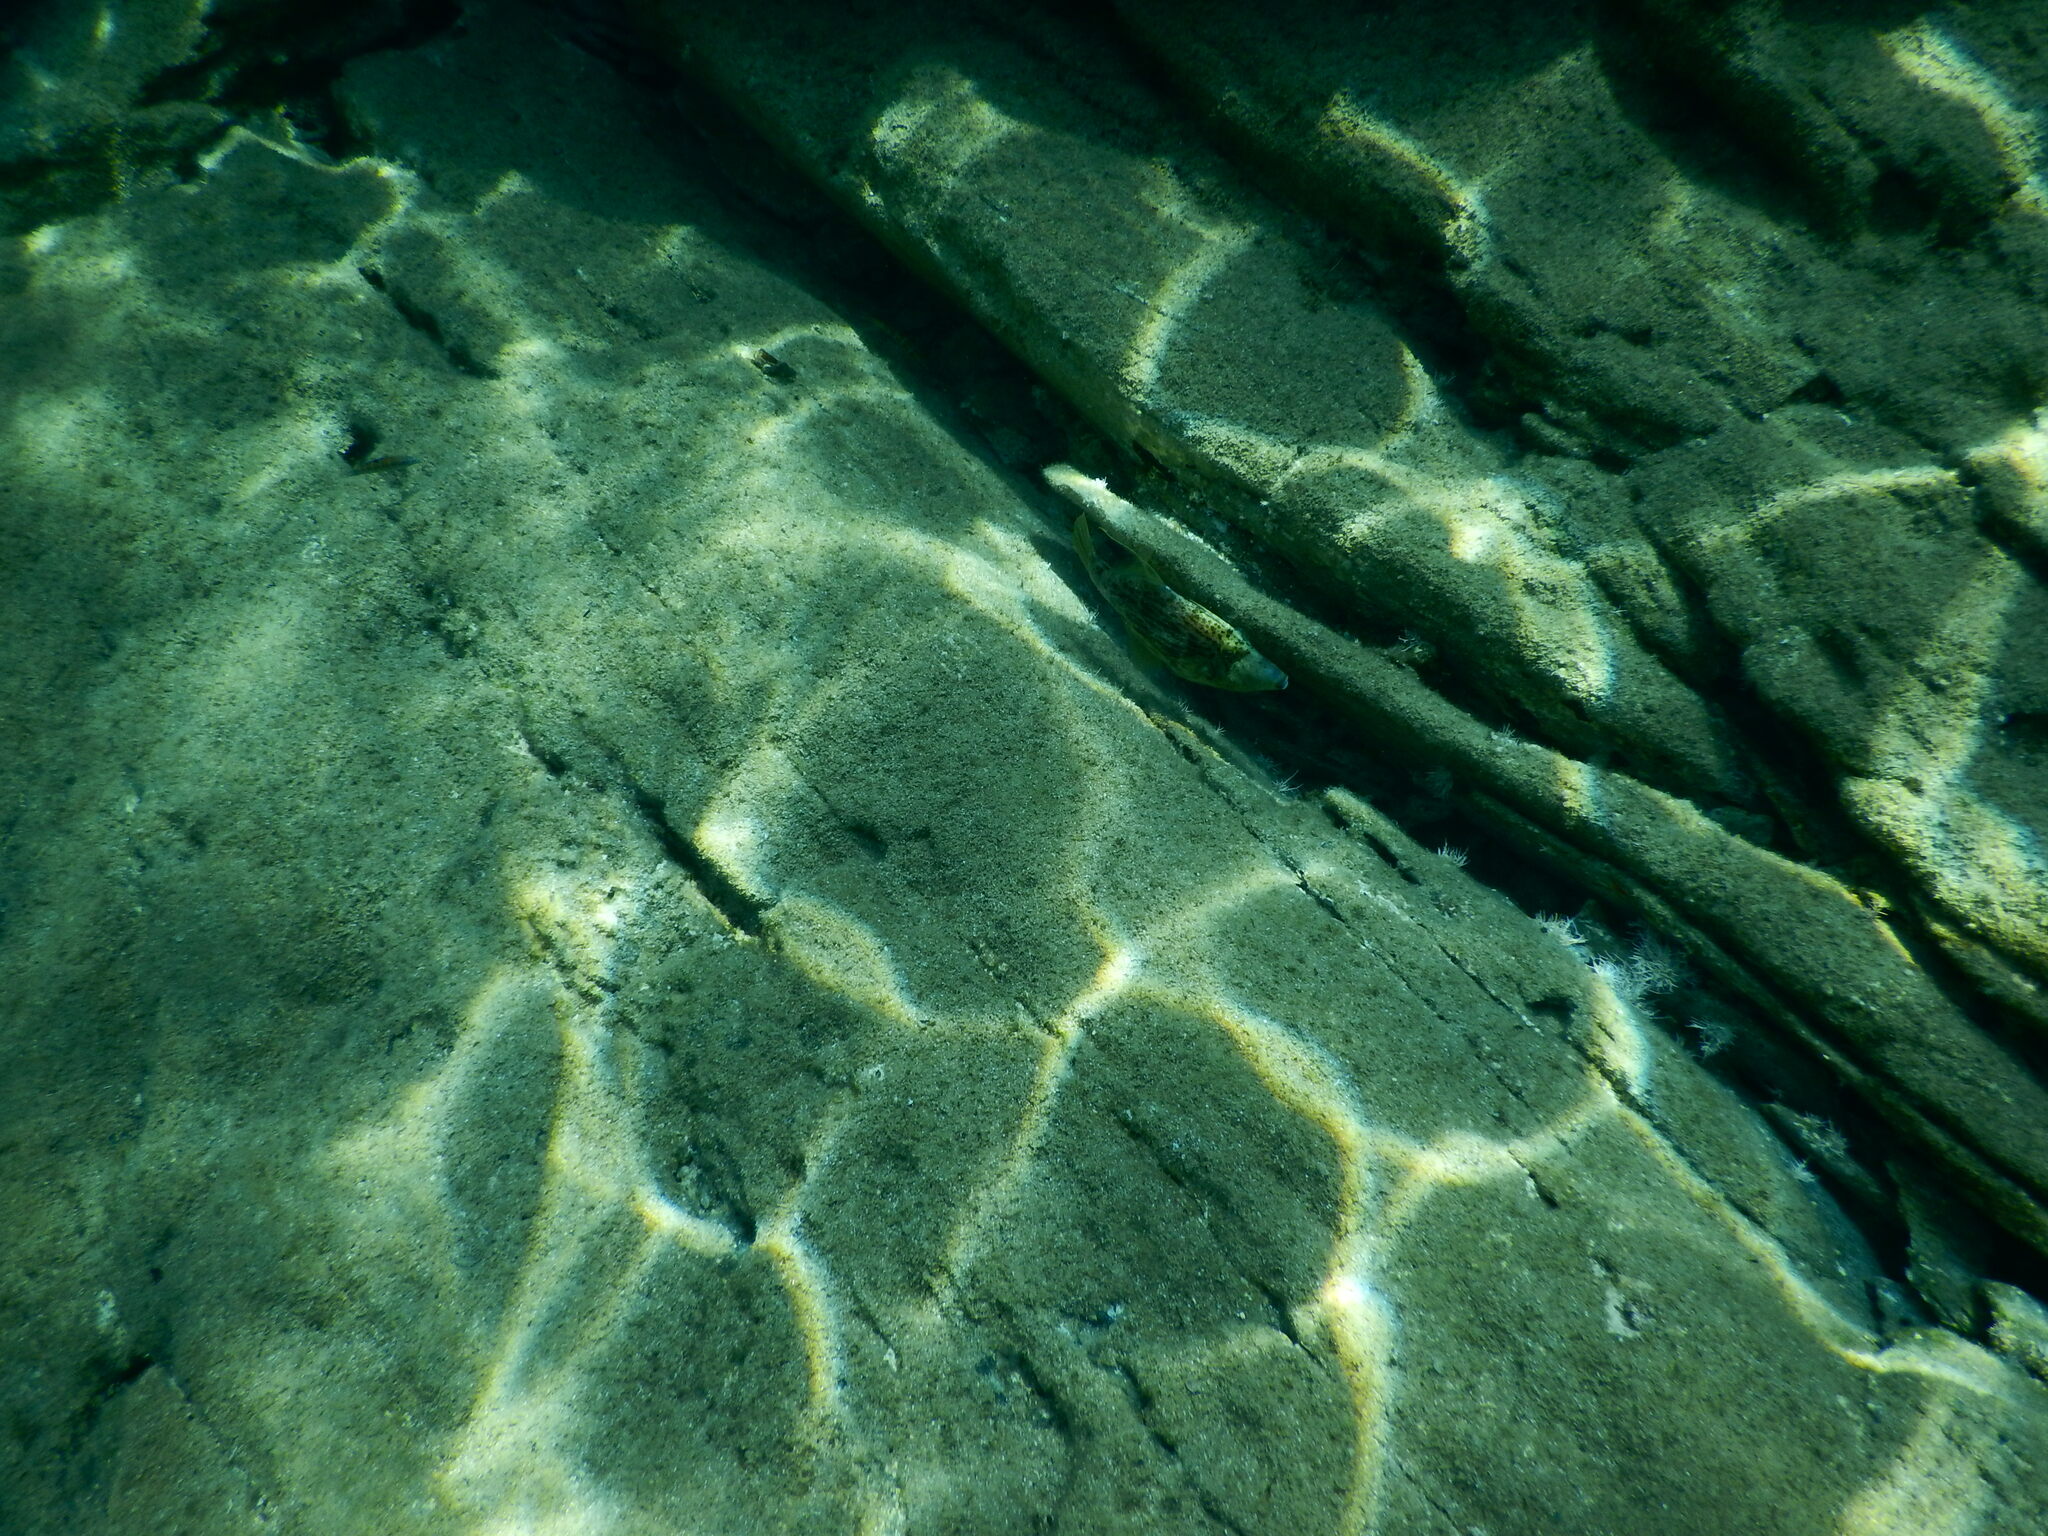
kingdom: Animalia
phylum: Chordata
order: Tetraodontiformes
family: Monacanthidae
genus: Stephanolepis
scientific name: Stephanolepis diaspros
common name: Reticulated leatherjacket
